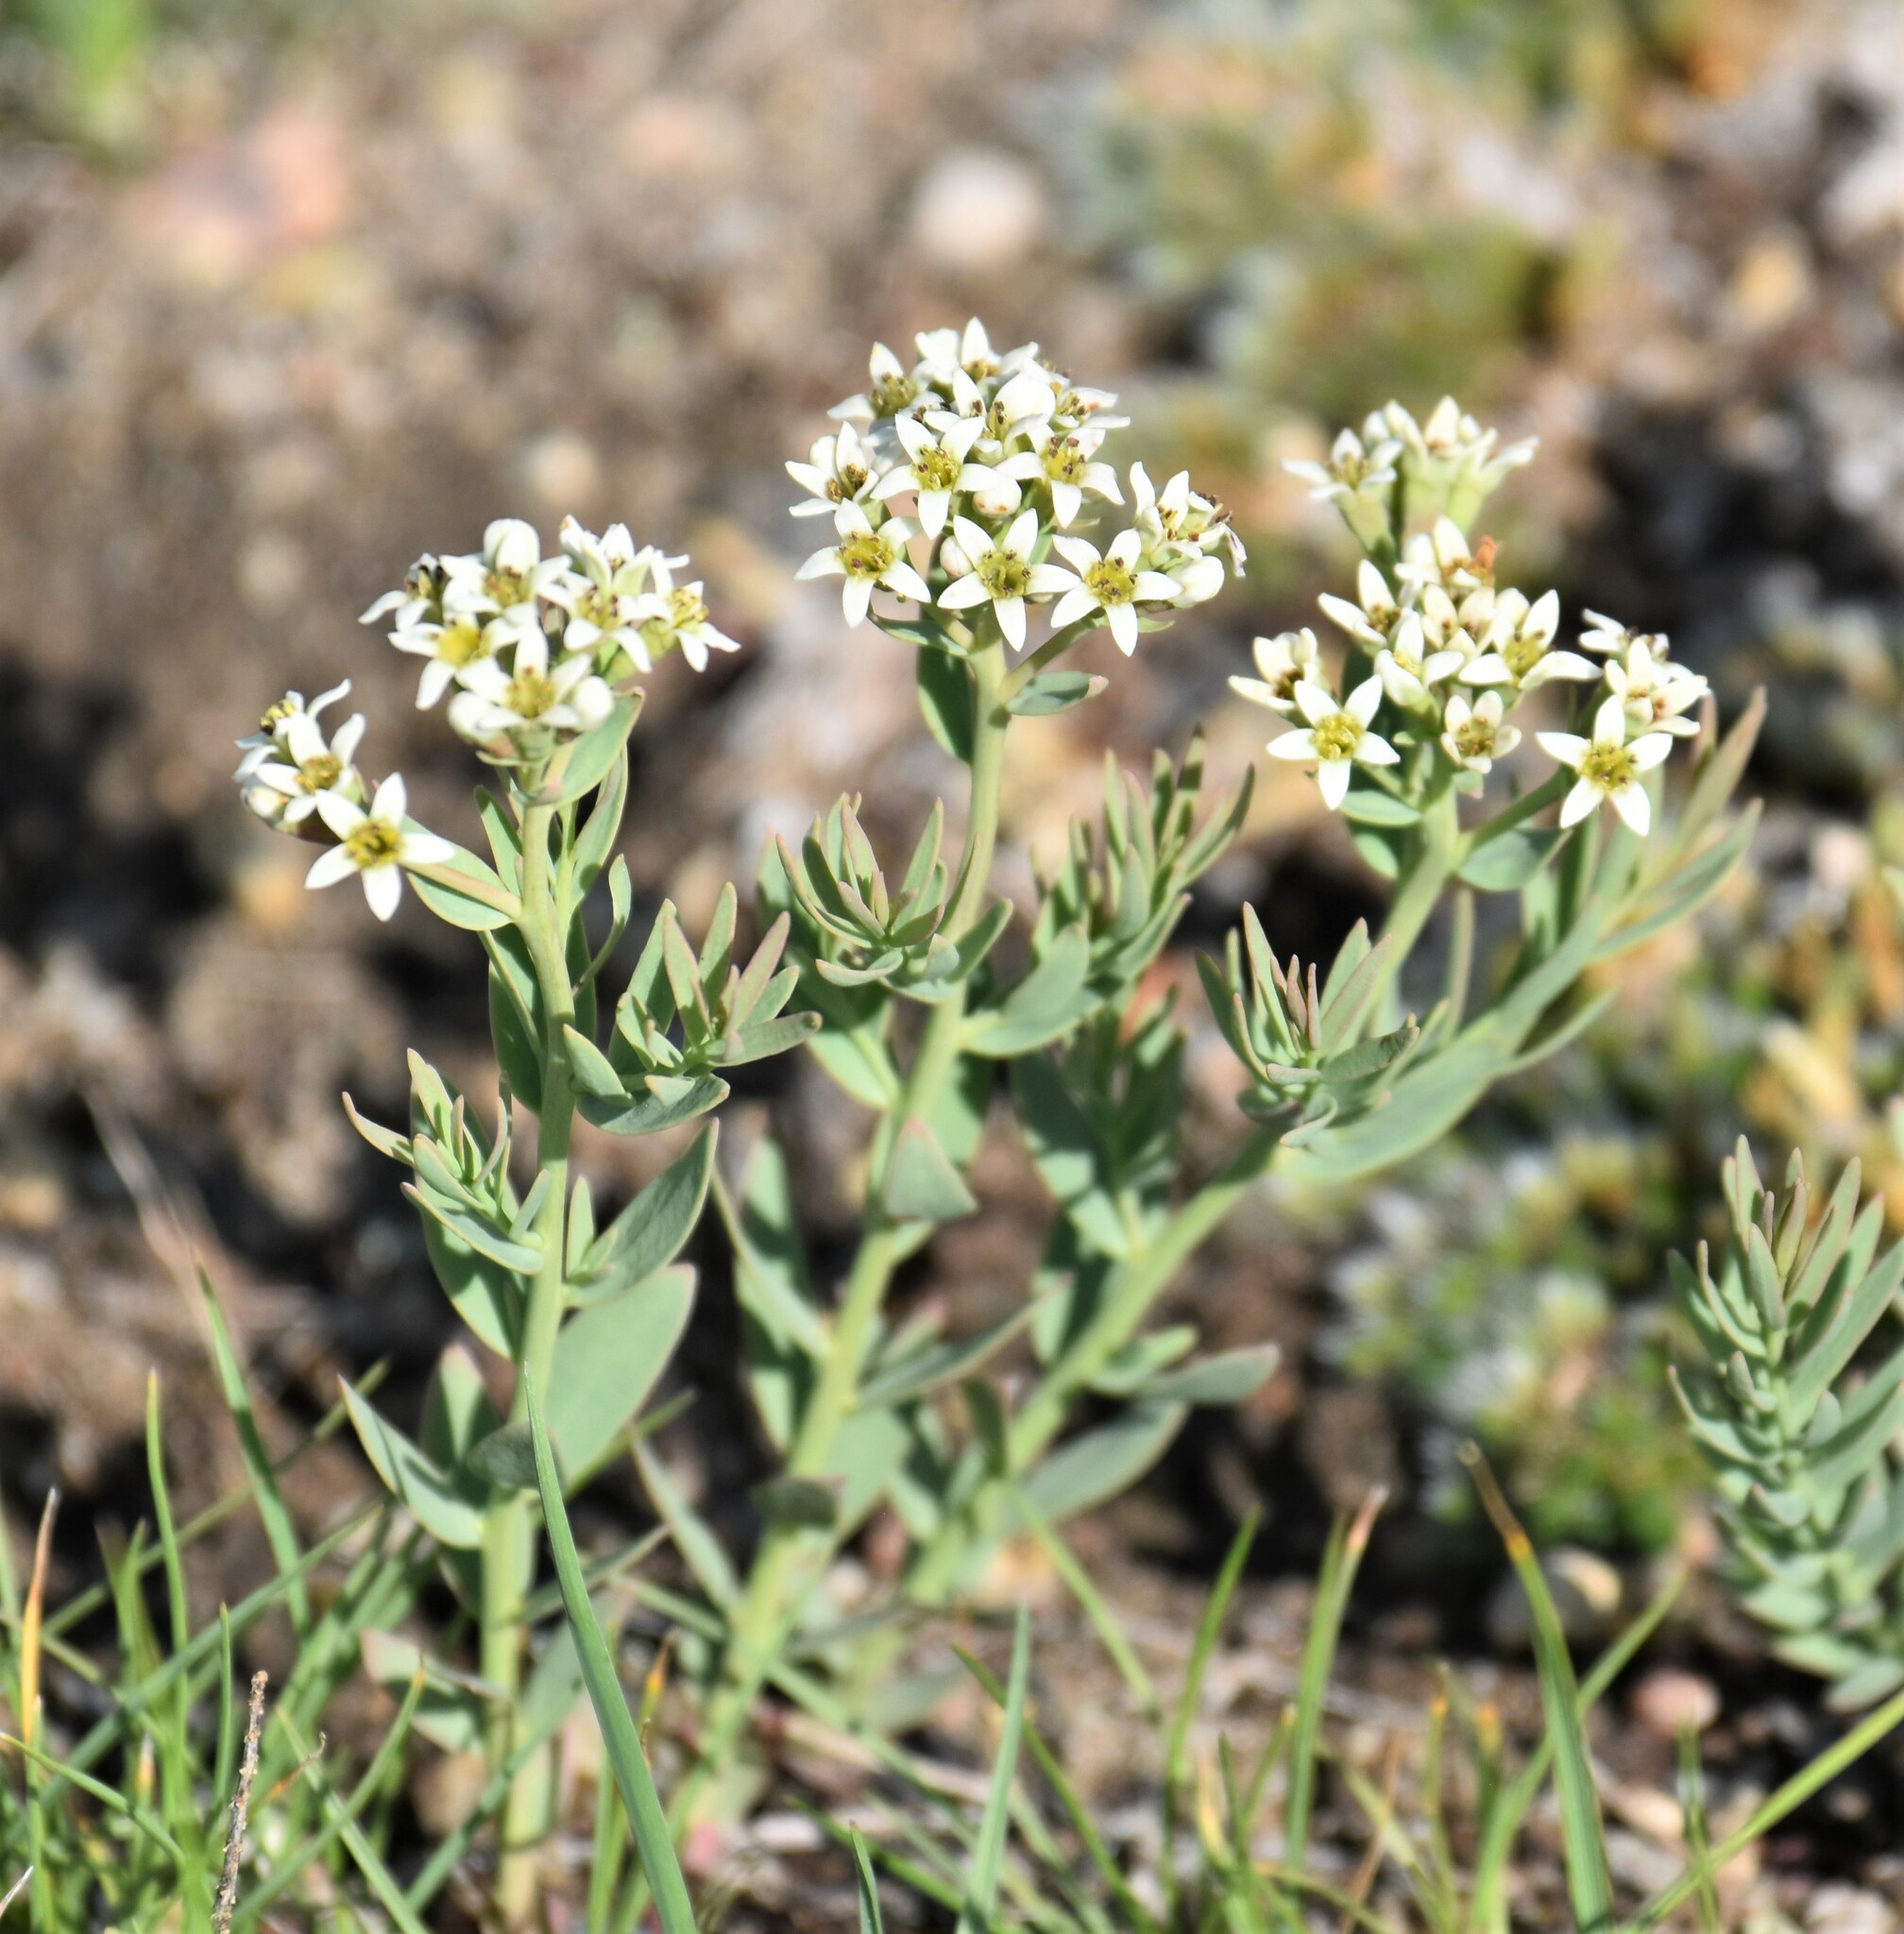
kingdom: Plantae
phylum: Tracheophyta
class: Magnoliopsida
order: Santalales
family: Comandraceae
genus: Comandra
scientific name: Comandra umbellata
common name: Bastard toadflax
